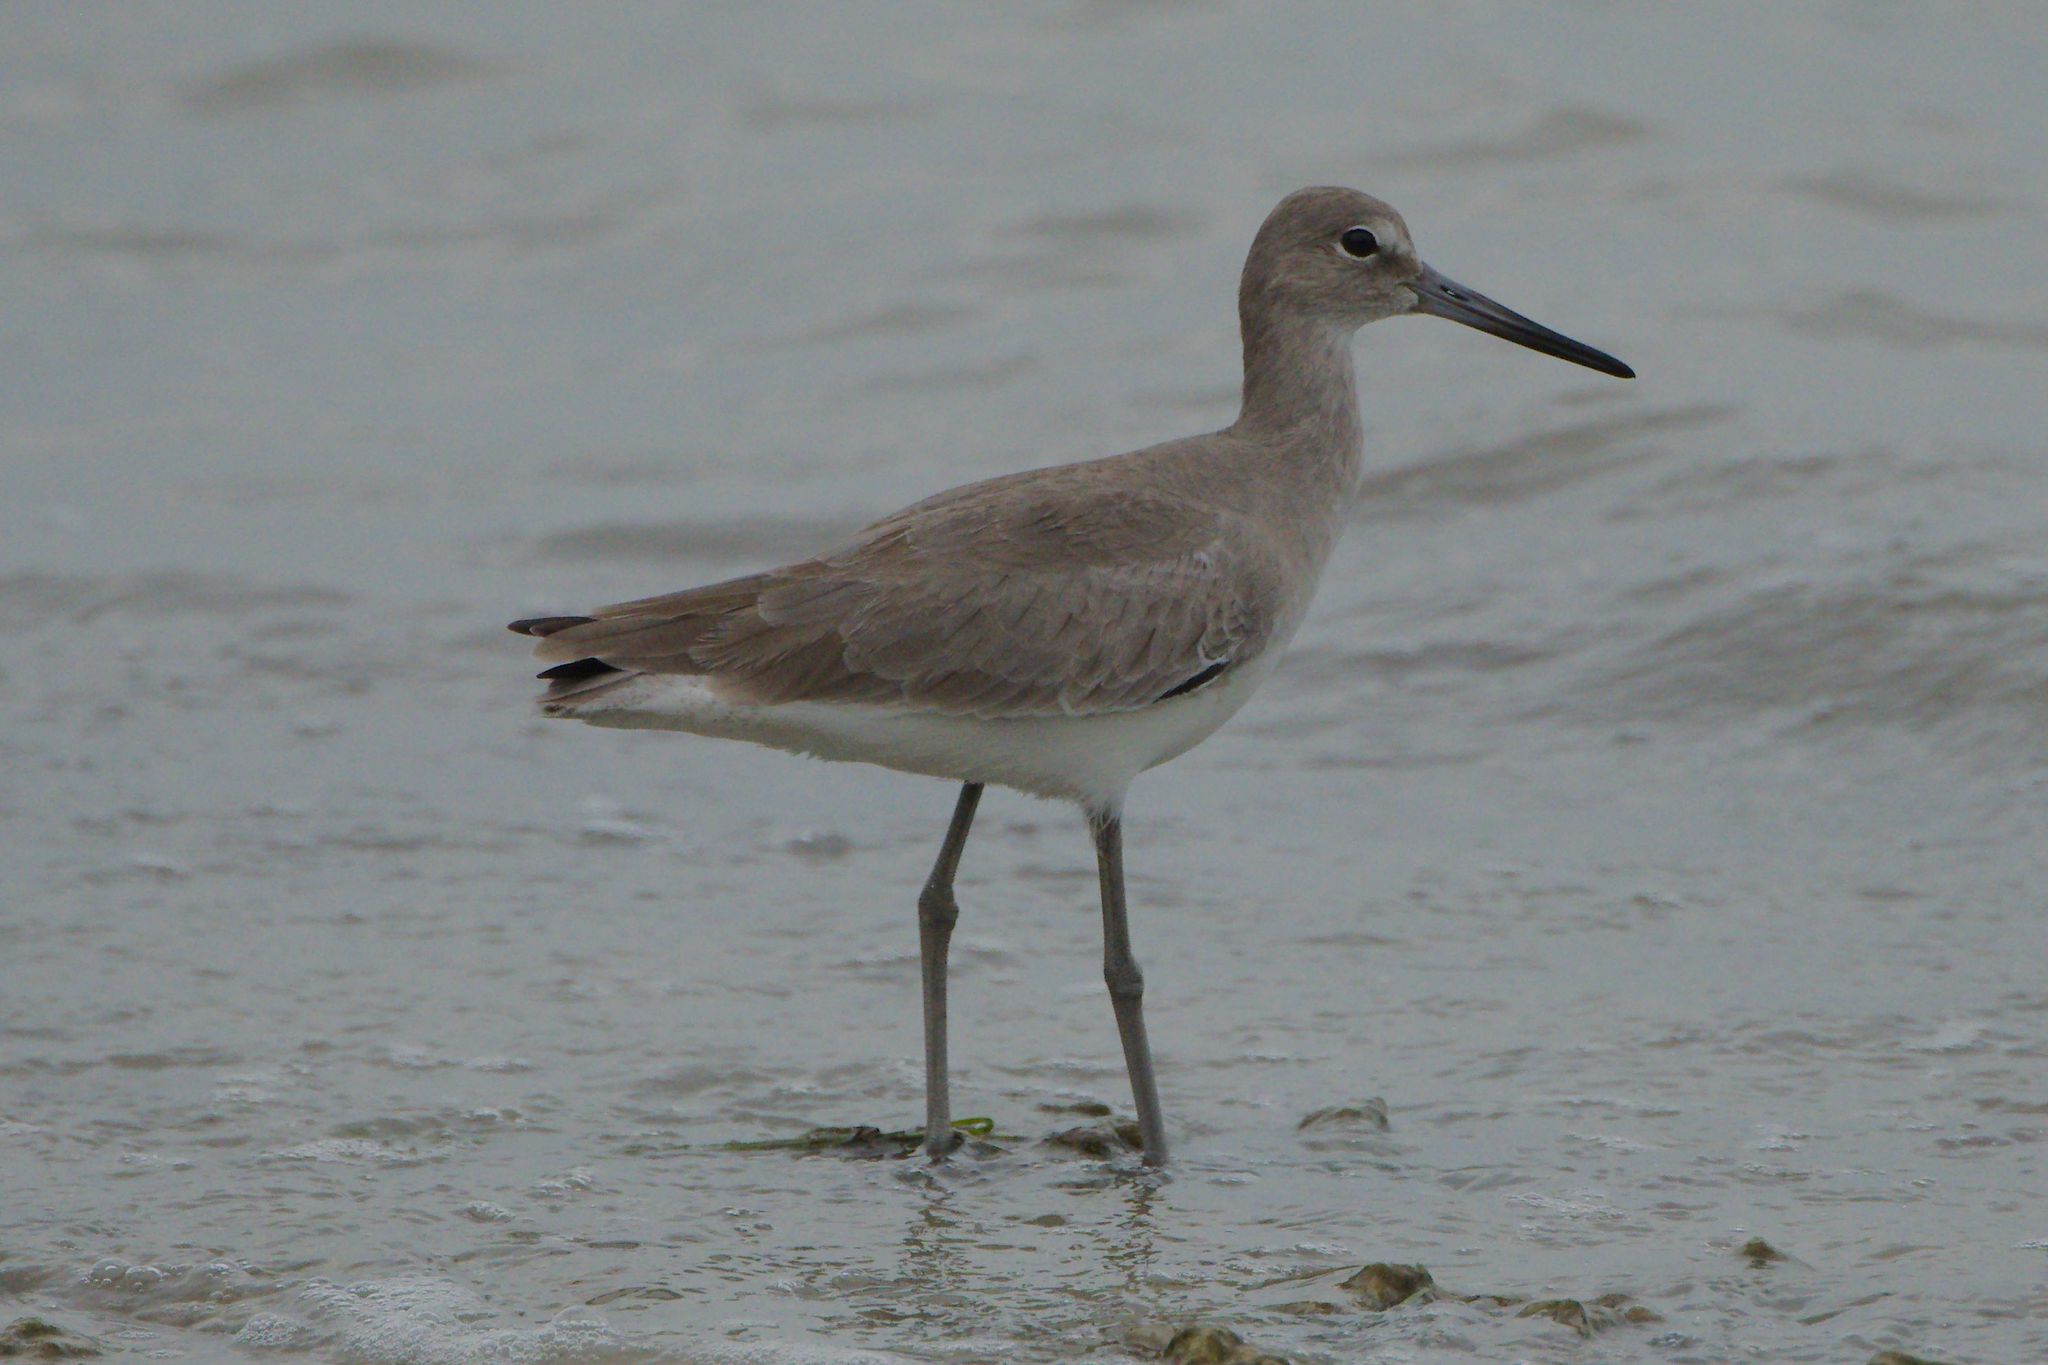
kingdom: Animalia
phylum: Chordata
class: Aves
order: Charadriiformes
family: Scolopacidae
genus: Tringa
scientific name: Tringa semipalmata
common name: Willet
